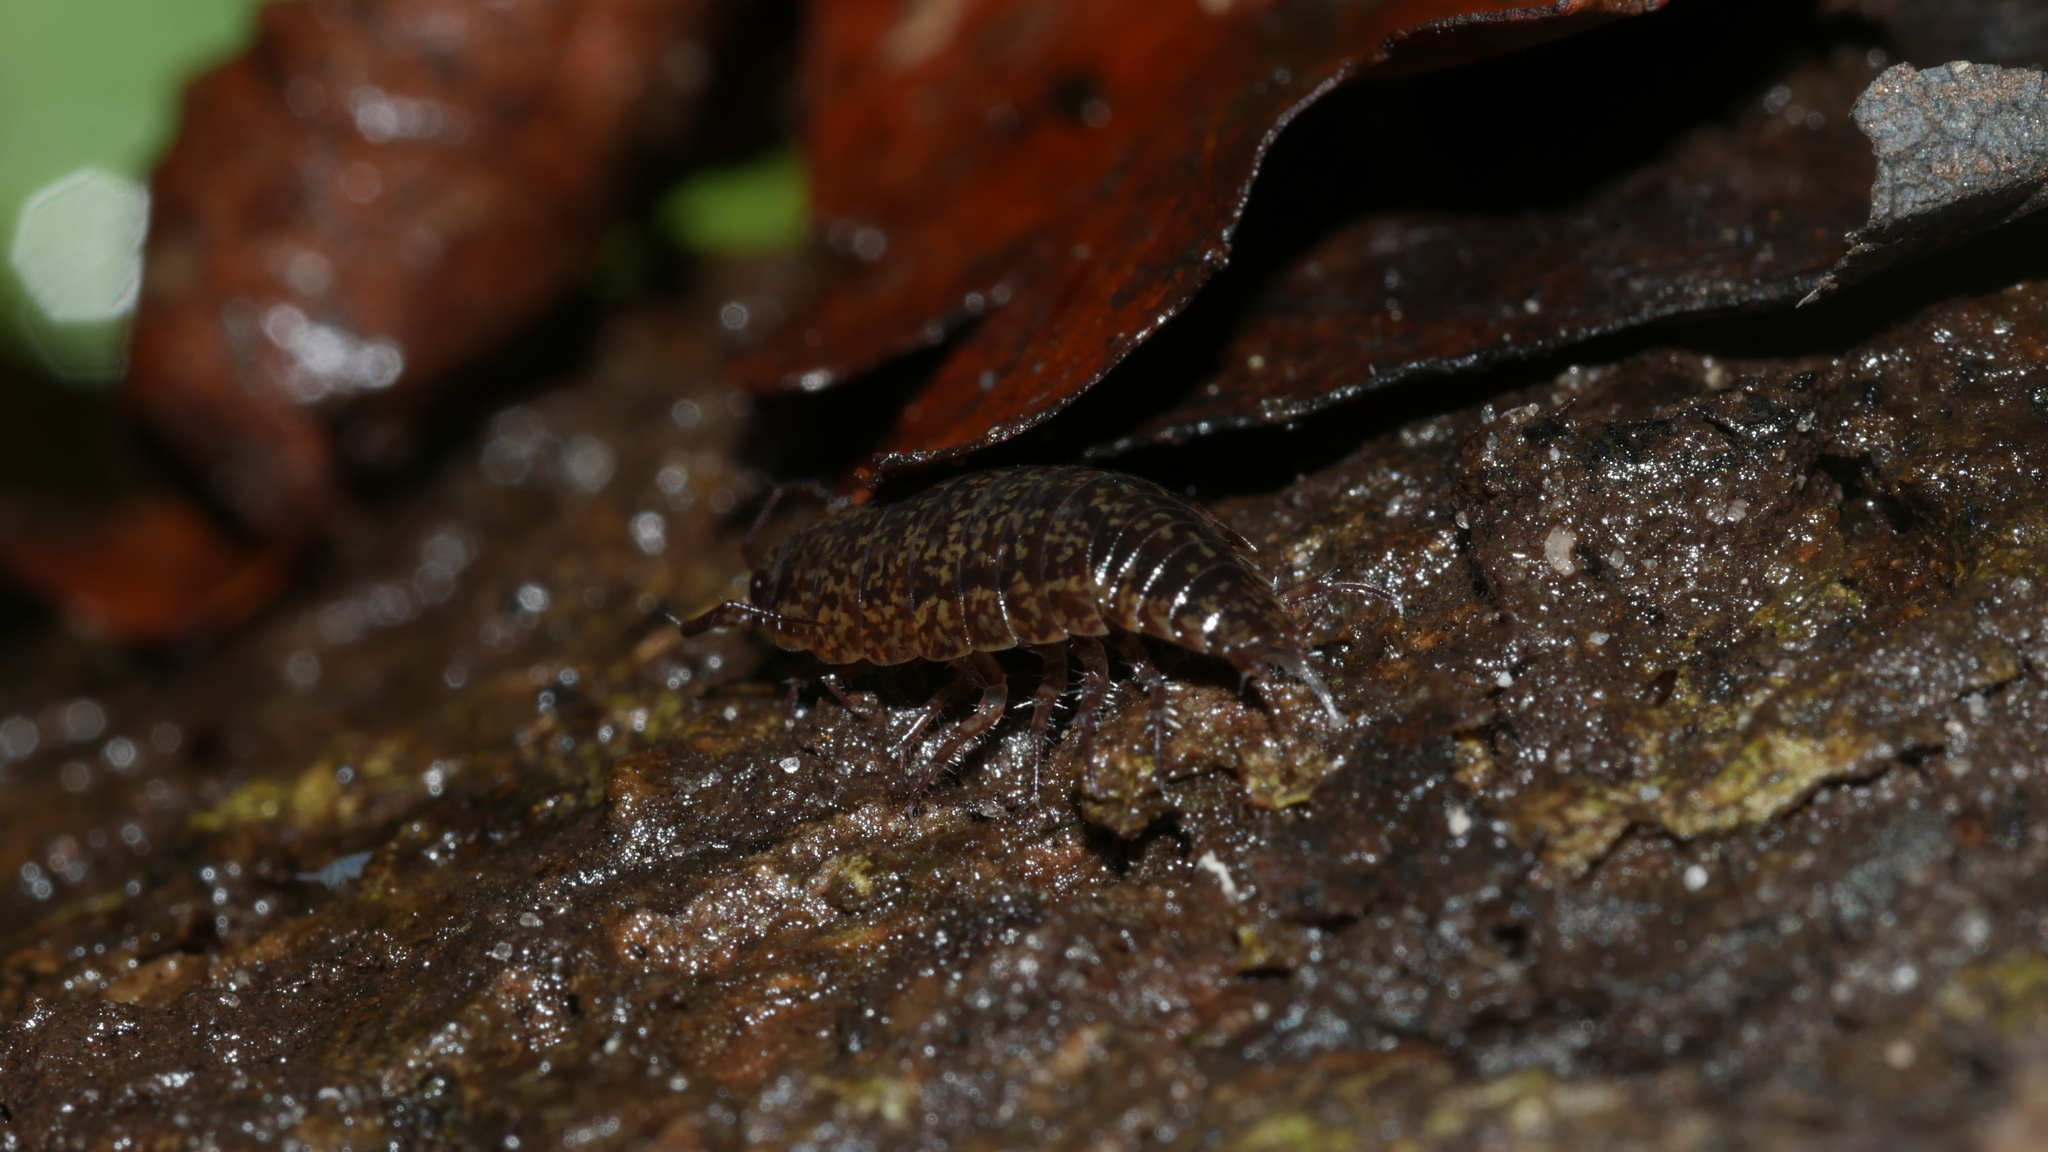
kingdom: Animalia
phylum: Arthropoda
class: Malacostraca
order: Isopoda
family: Ligiidae
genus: Ligidium
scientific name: Ligidium elrodii
